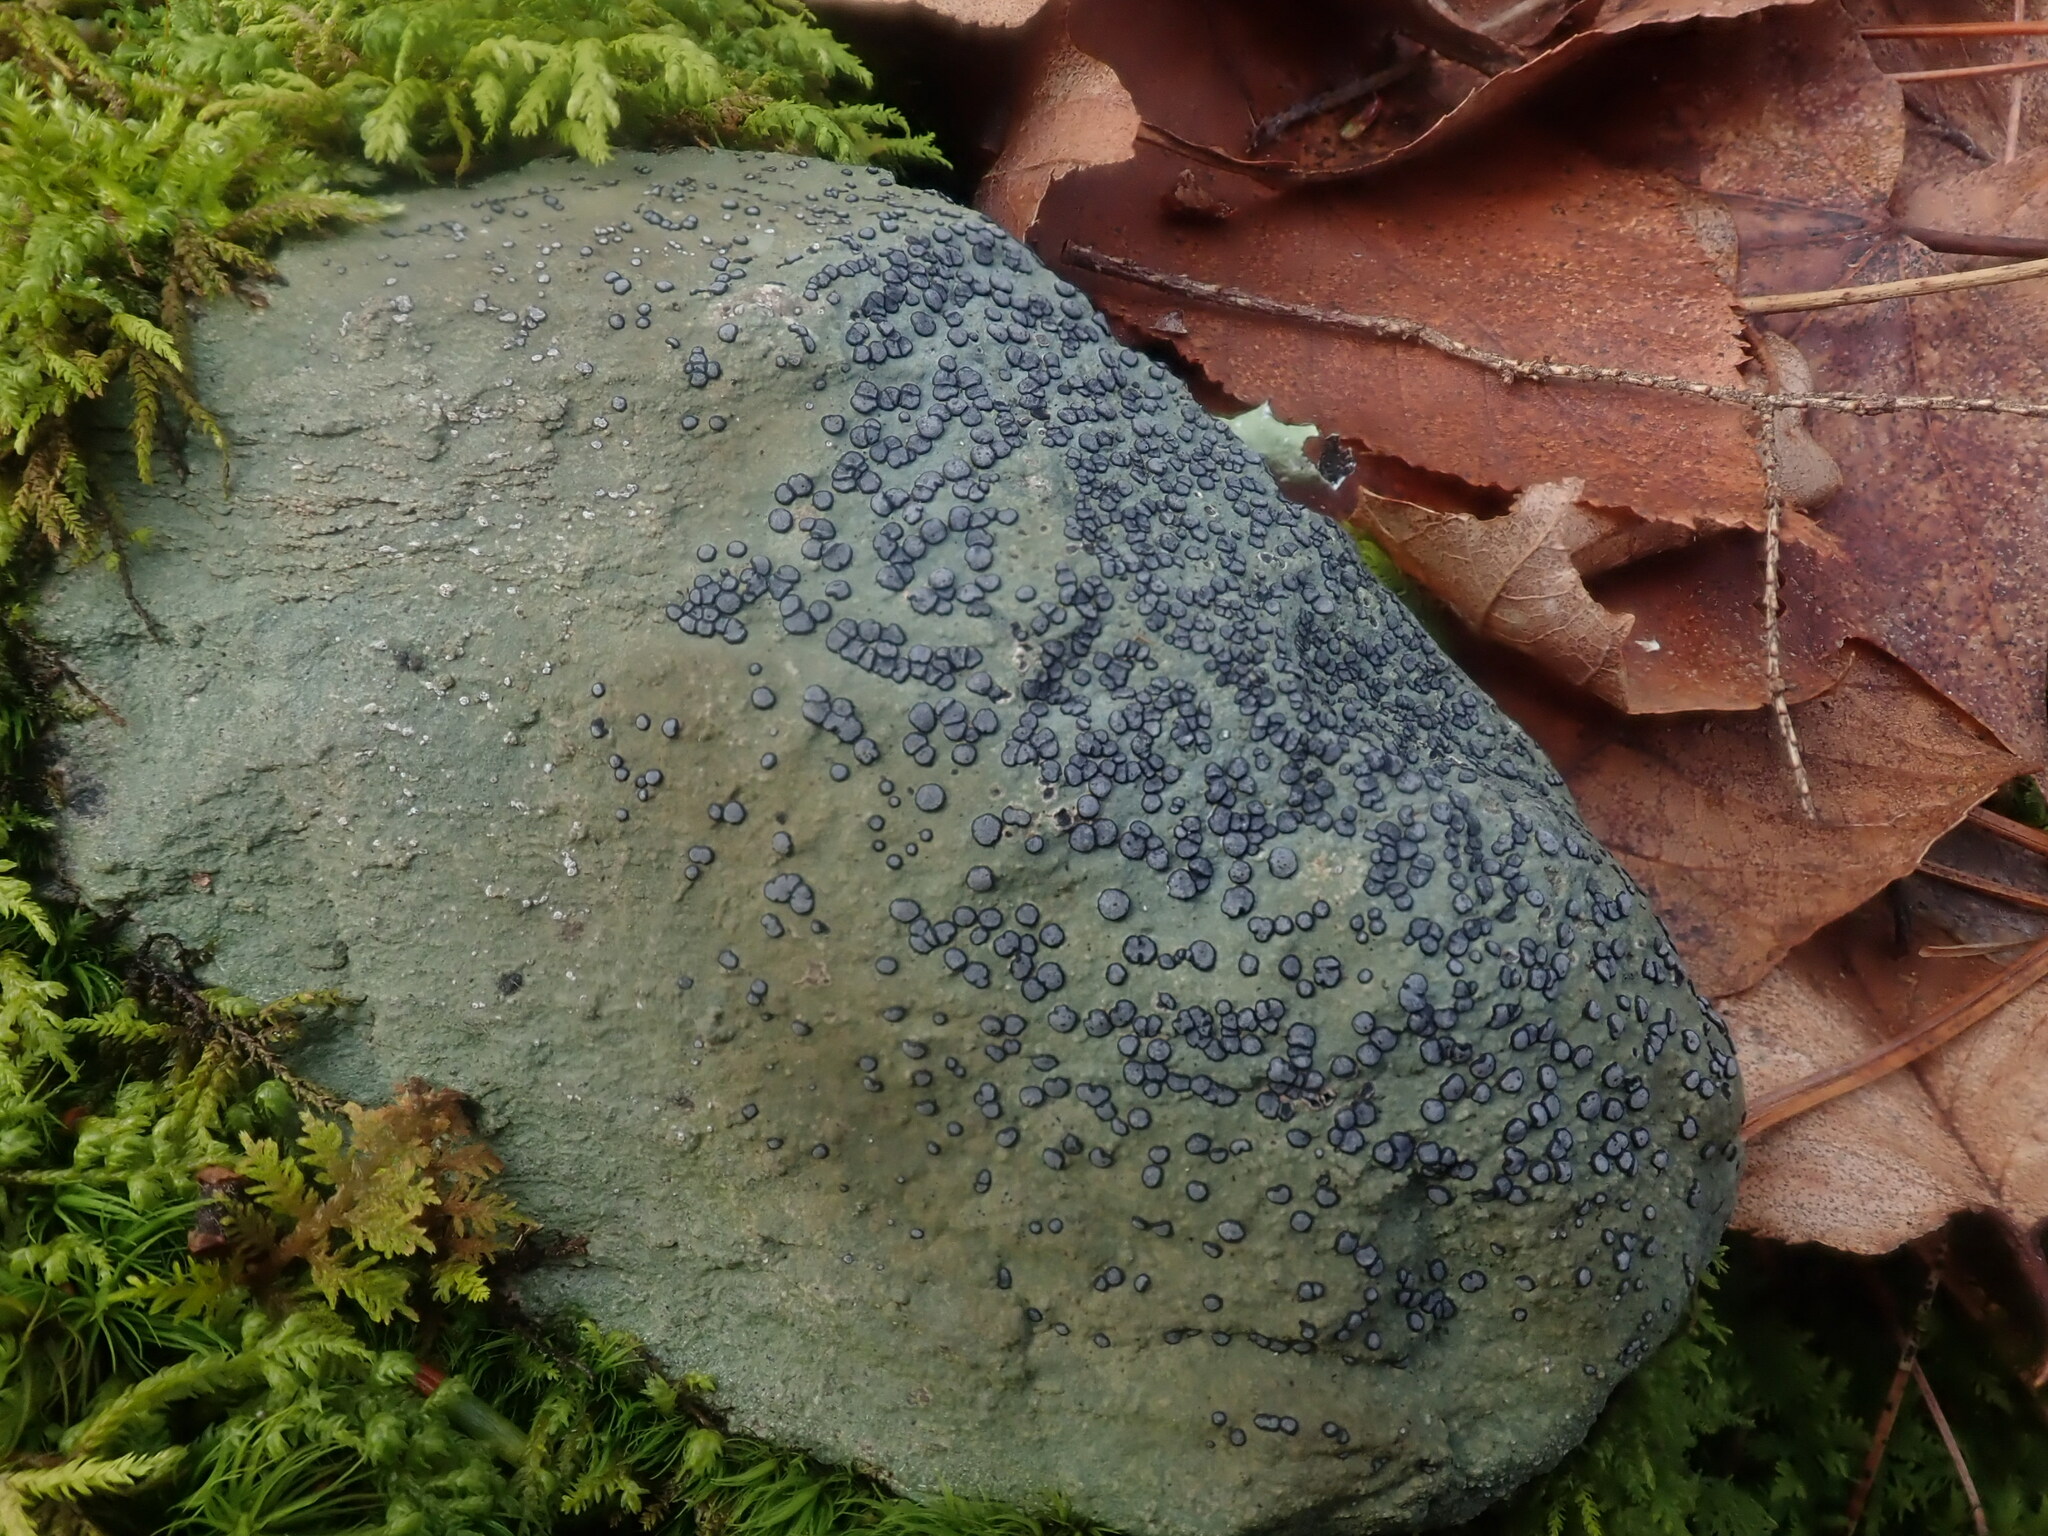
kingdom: Fungi
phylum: Ascomycota
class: Lecanoromycetes
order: Lecideales
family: Lecideaceae
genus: Porpidia
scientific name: Porpidia albocaerulescens
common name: Smokey-eyed boulder lichen
